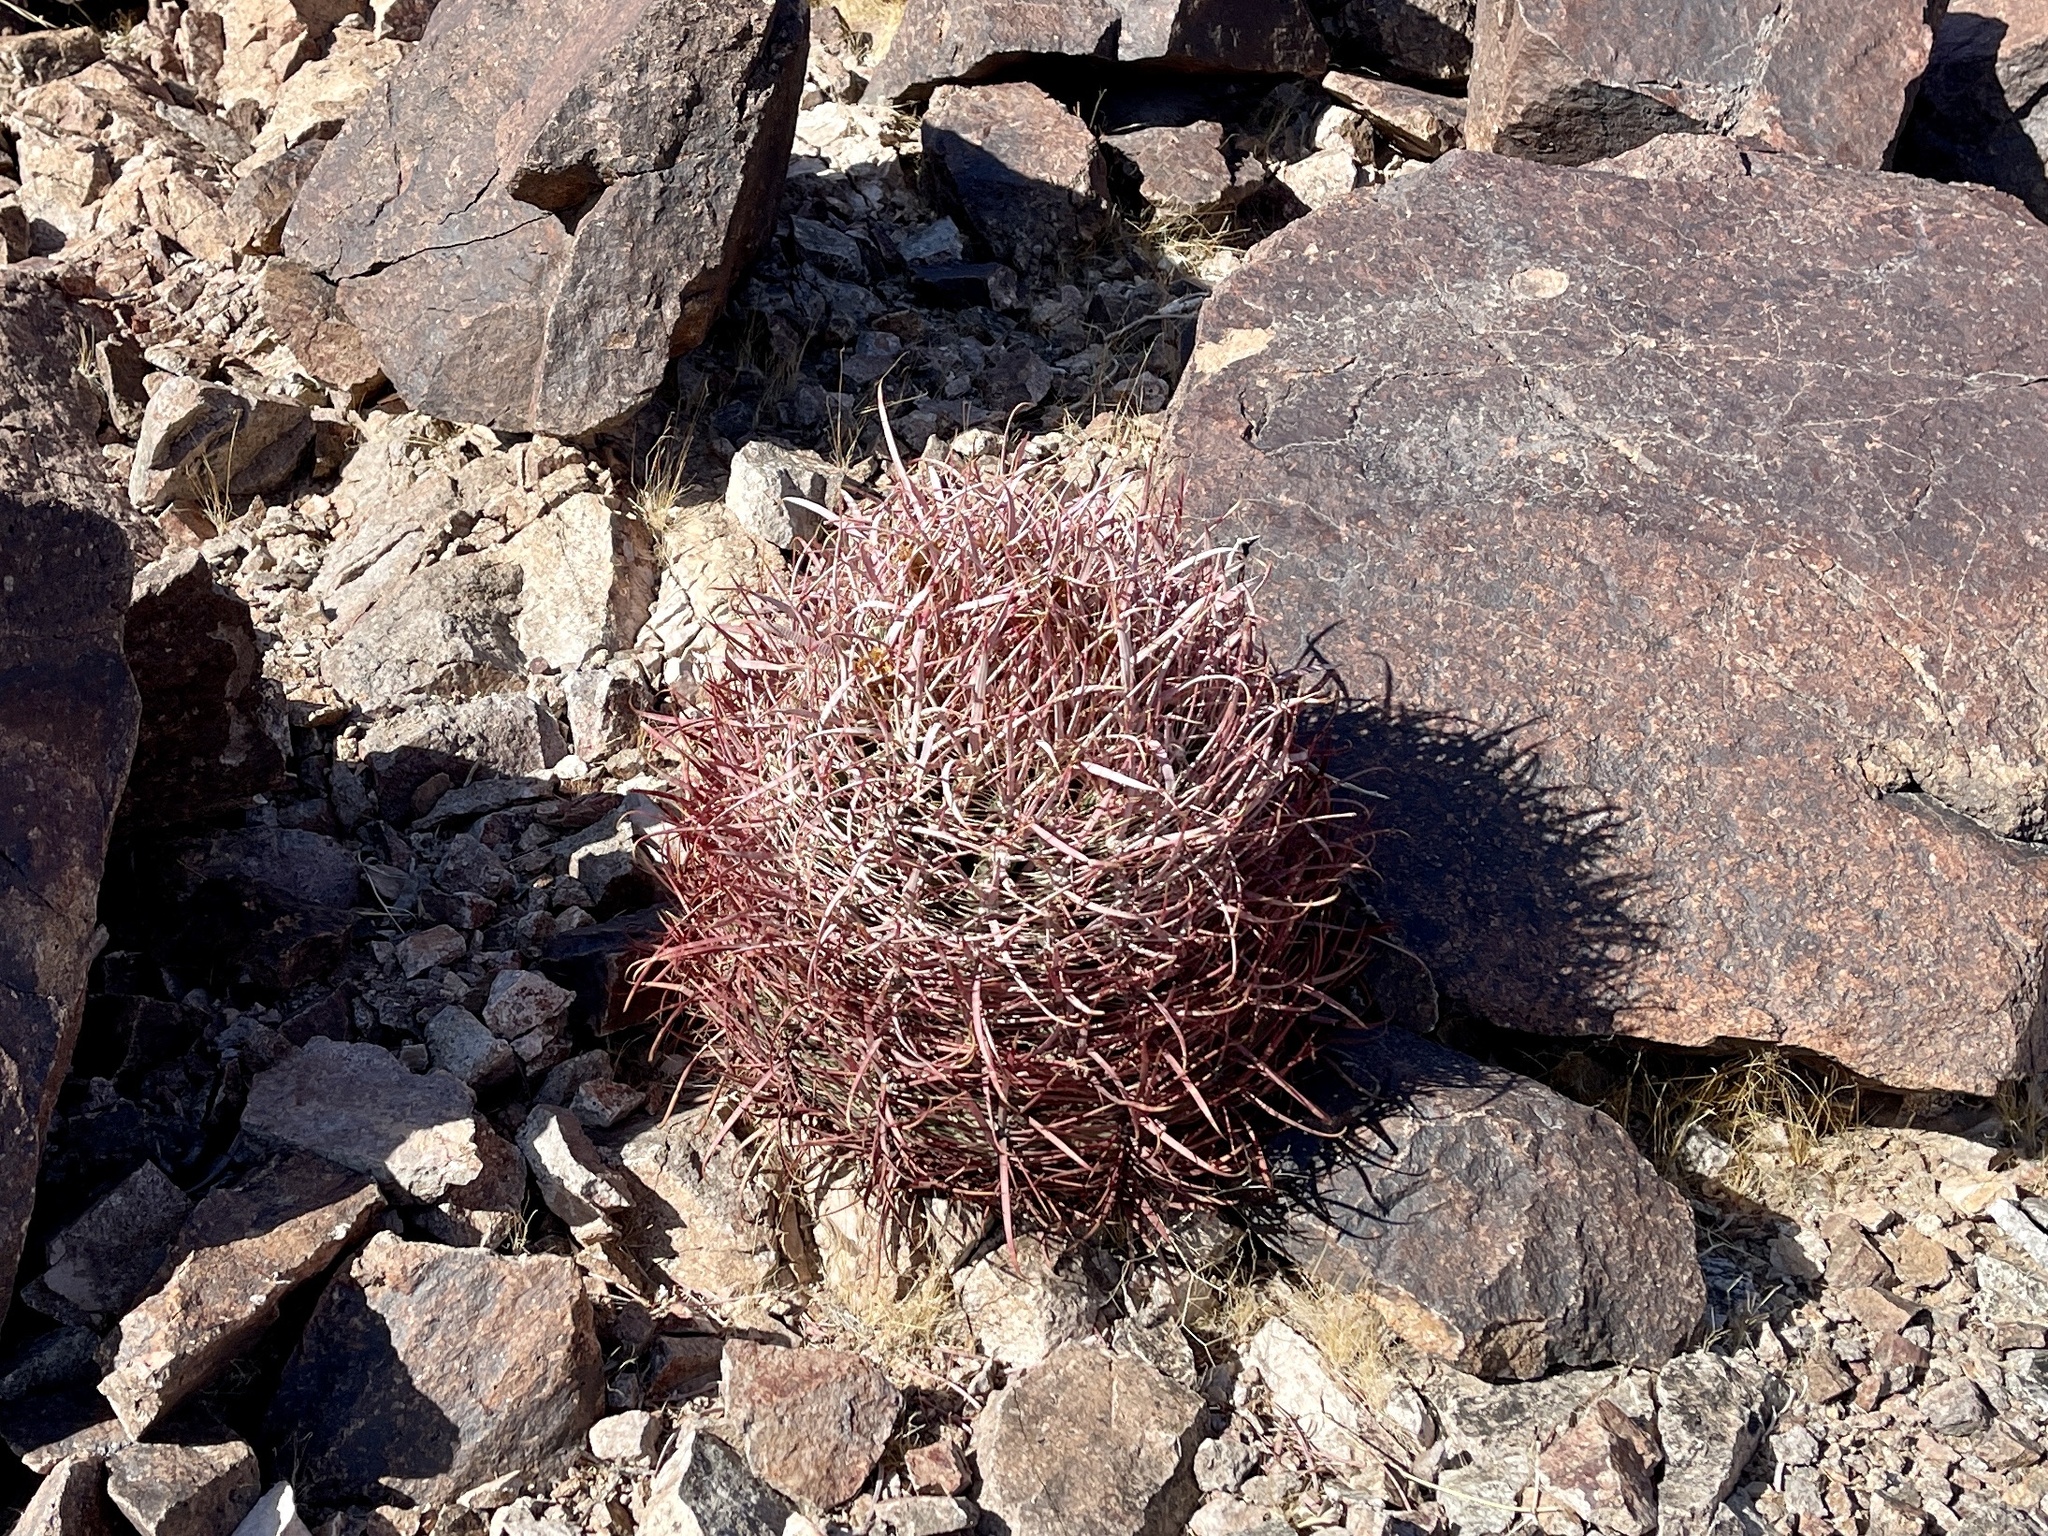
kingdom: Plantae
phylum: Tracheophyta
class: Magnoliopsida
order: Caryophyllales
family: Cactaceae
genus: Ferocactus
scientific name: Ferocactus cylindraceus
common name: California barrel cactus
